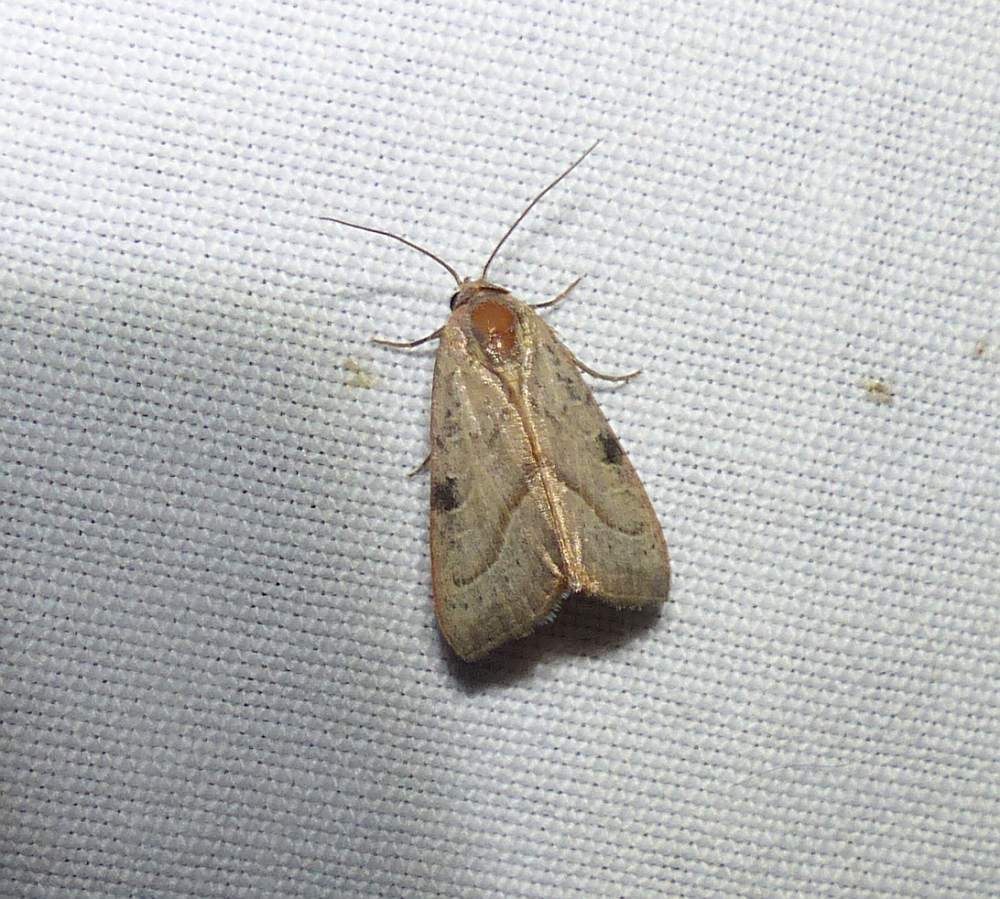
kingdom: Animalia
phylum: Arthropoda
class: Insecta
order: Lepidoptera
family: Noctuidae
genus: Galgula
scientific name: Galgula partita
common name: Wedgeling
